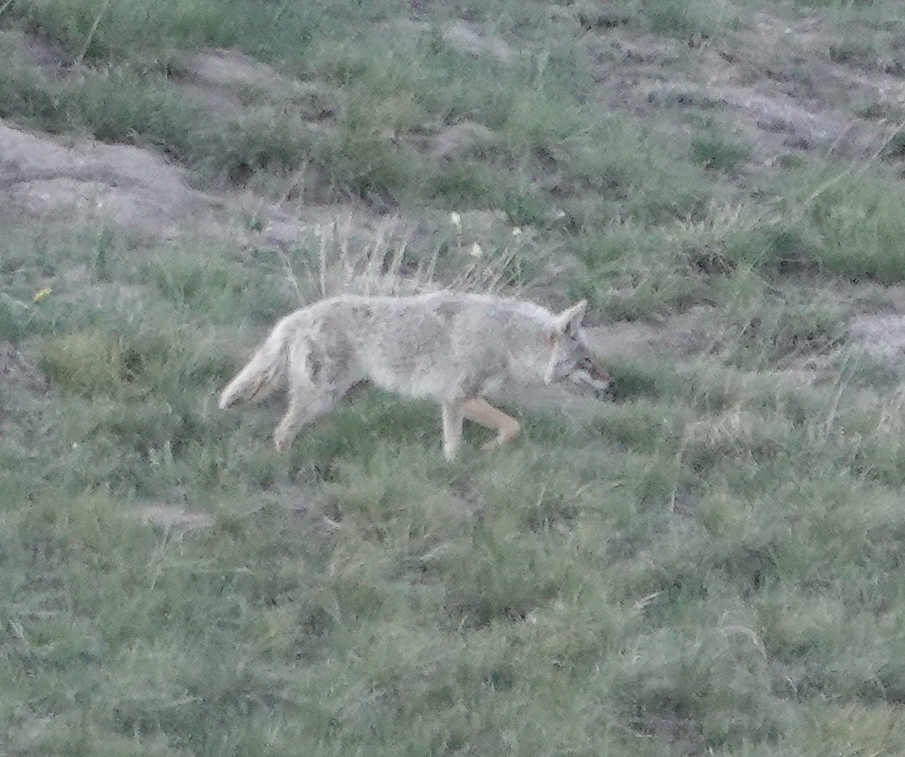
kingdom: Animalia
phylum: Chordata
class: Mammalia
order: Carnivora
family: Canidae
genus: Canis
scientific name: Canis latrans
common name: Coyote
